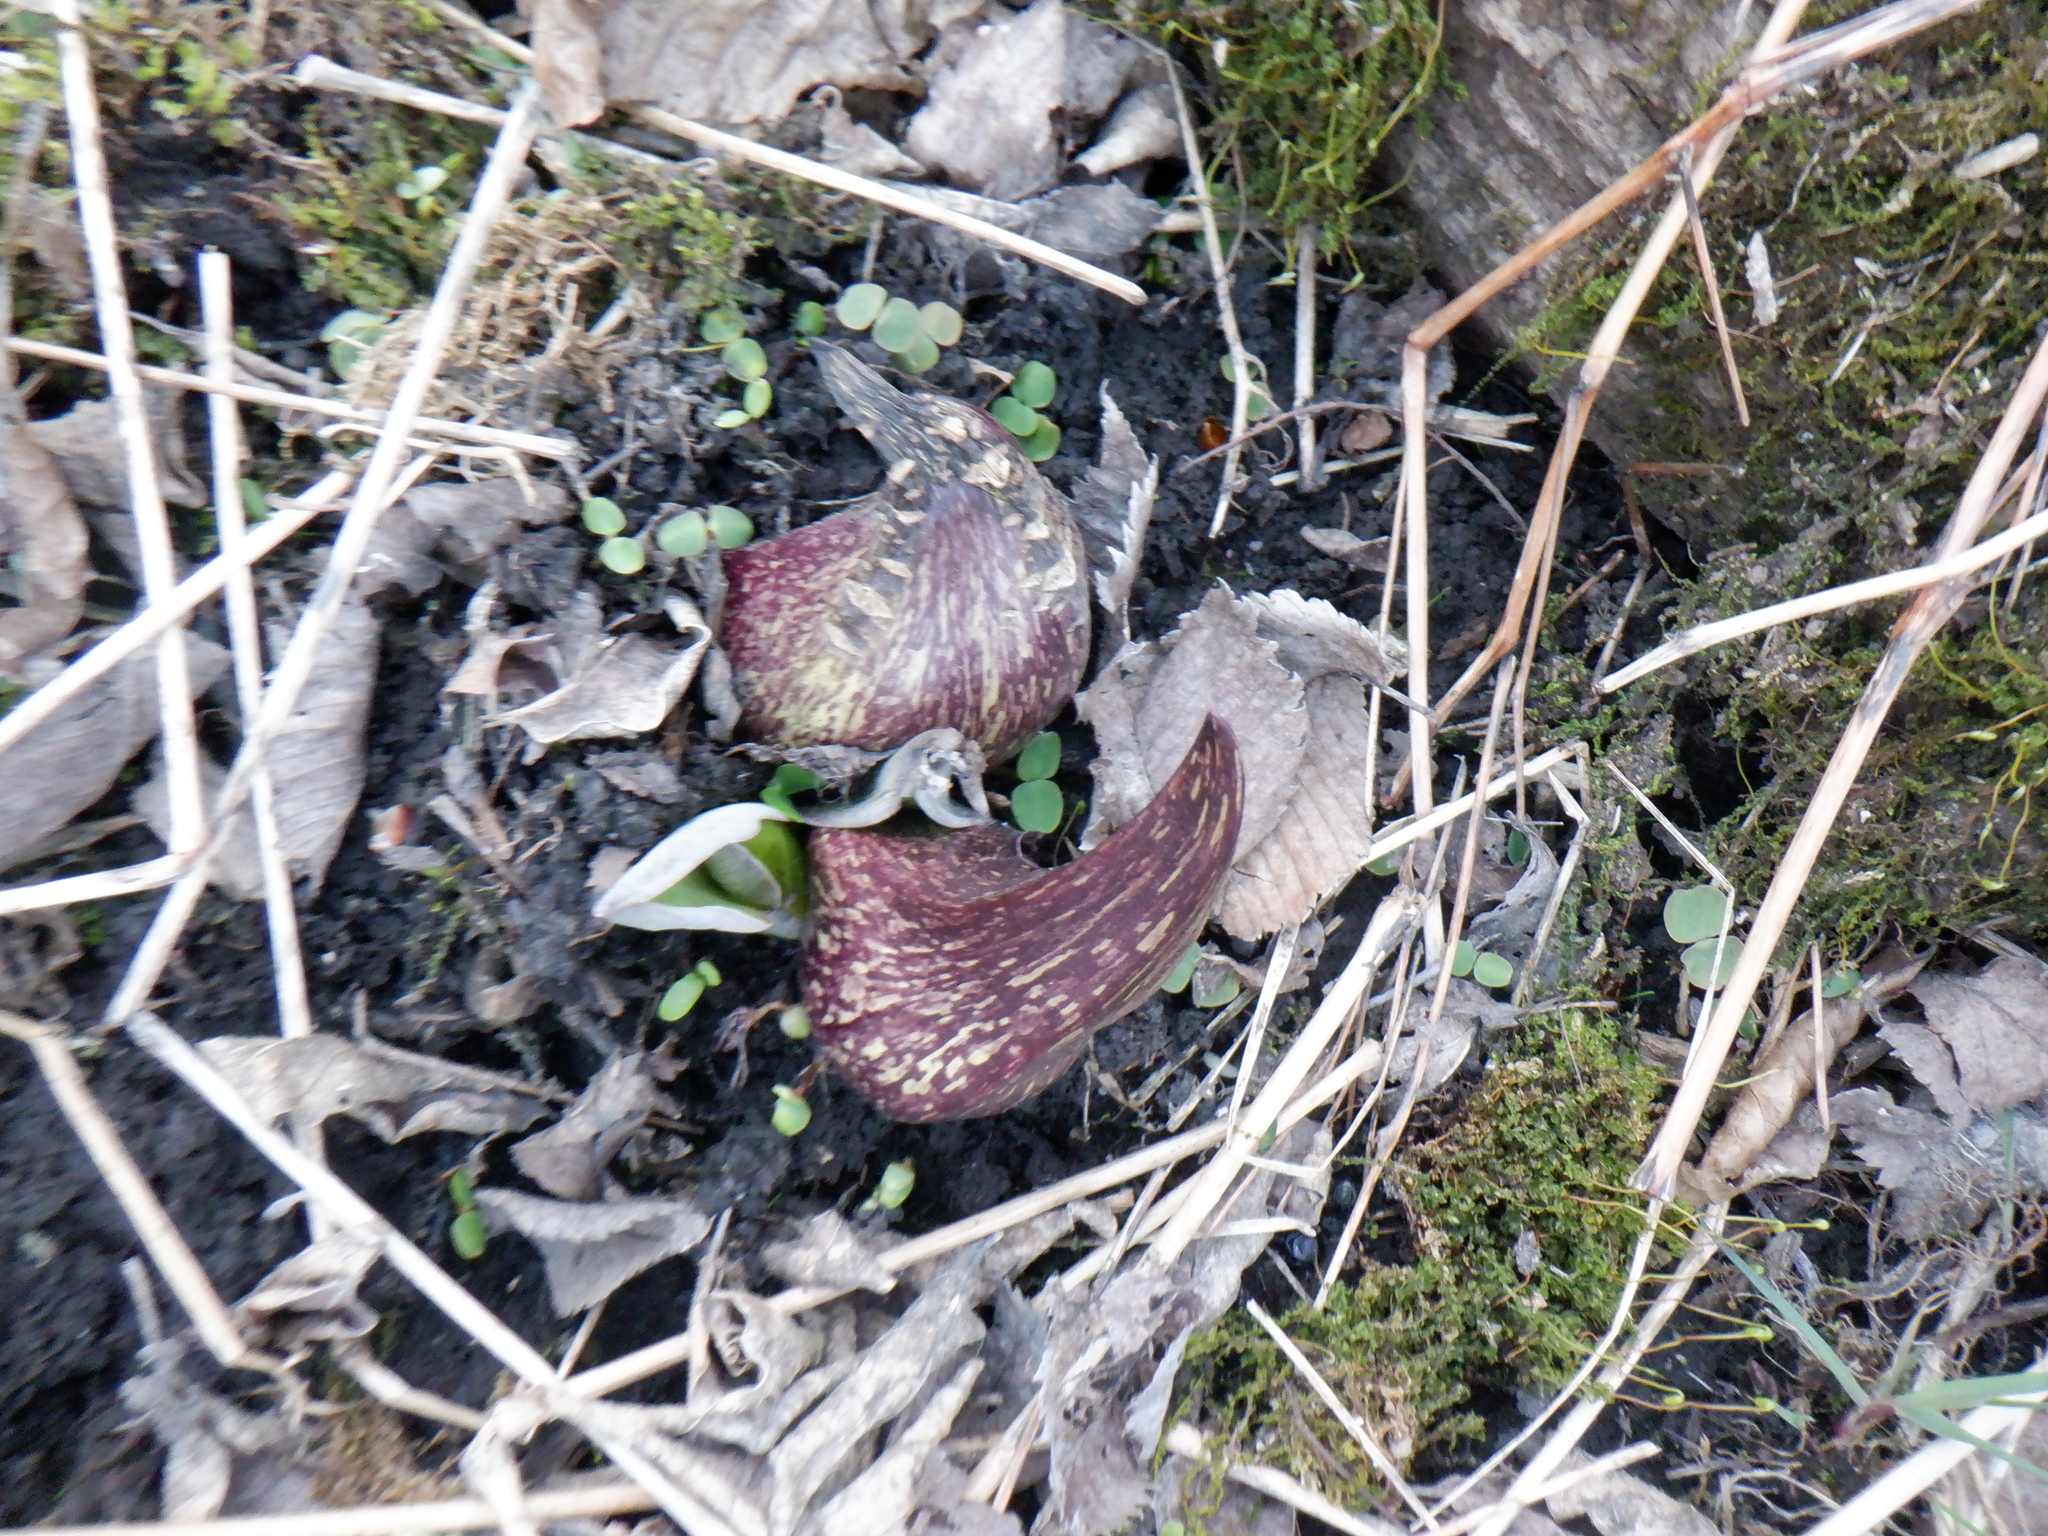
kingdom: Plantae
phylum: Tracheophyta
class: Liliopsida
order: Alismatales
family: Araceae
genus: Symplocarpus
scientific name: Symplocarpus foetidus
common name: Eastern skunk cabbage
